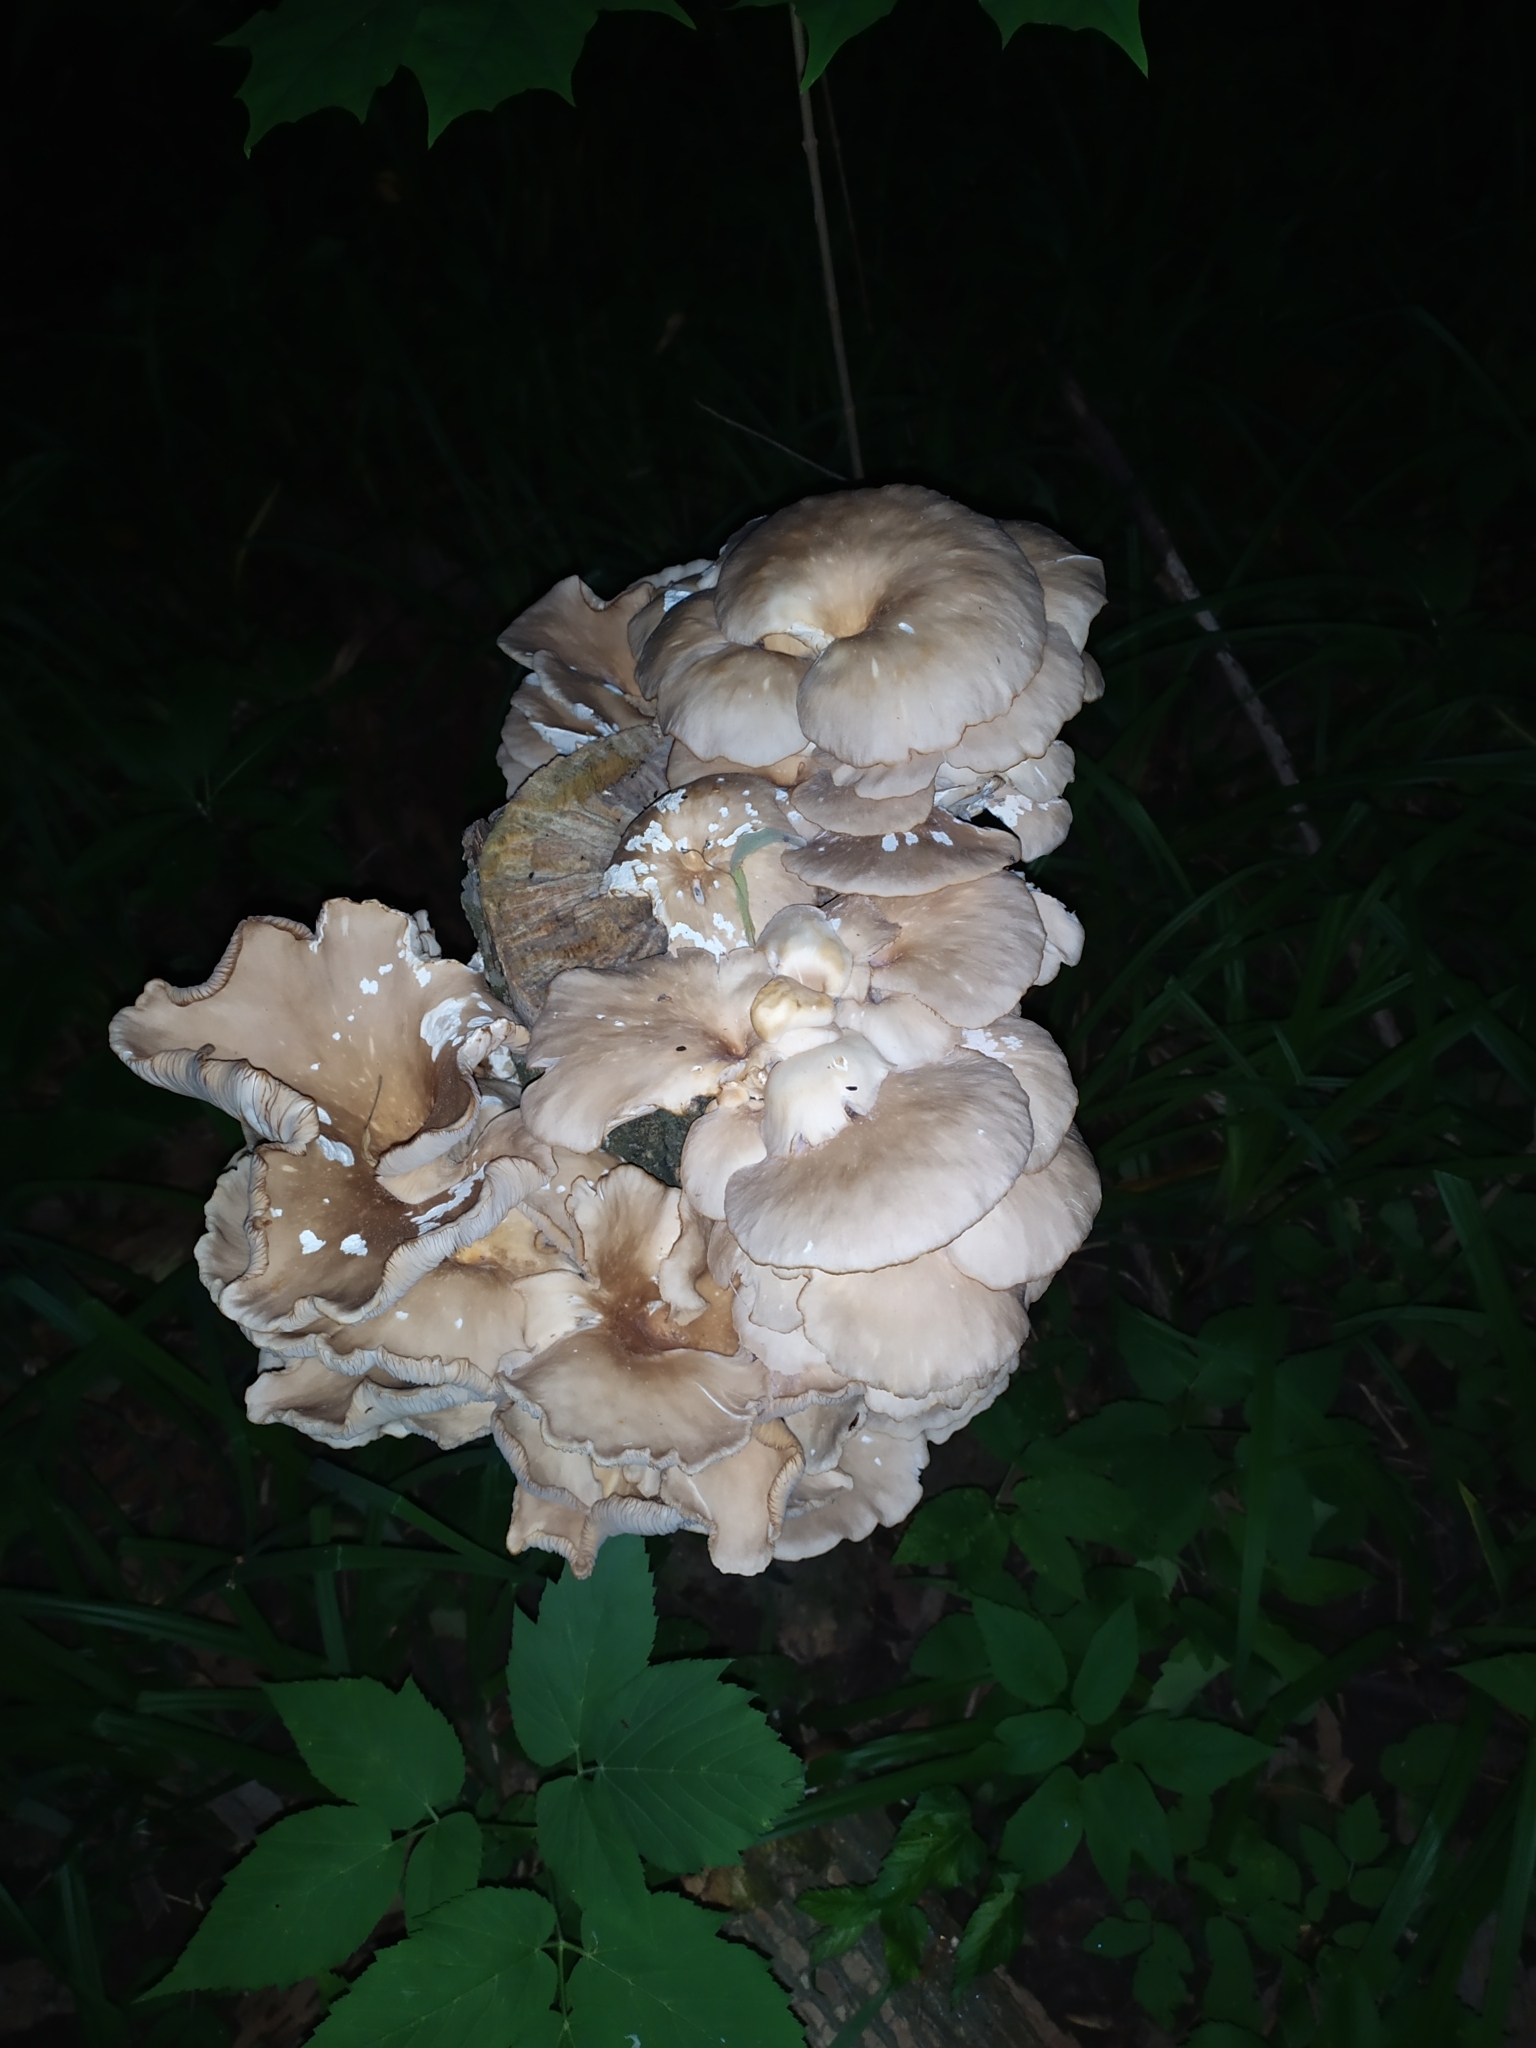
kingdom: Fungi
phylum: Basidiomycota
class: Agaricomycetes
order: Agaricales
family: Pleurotaceae
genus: Pleurotus
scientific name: Pleurotus
